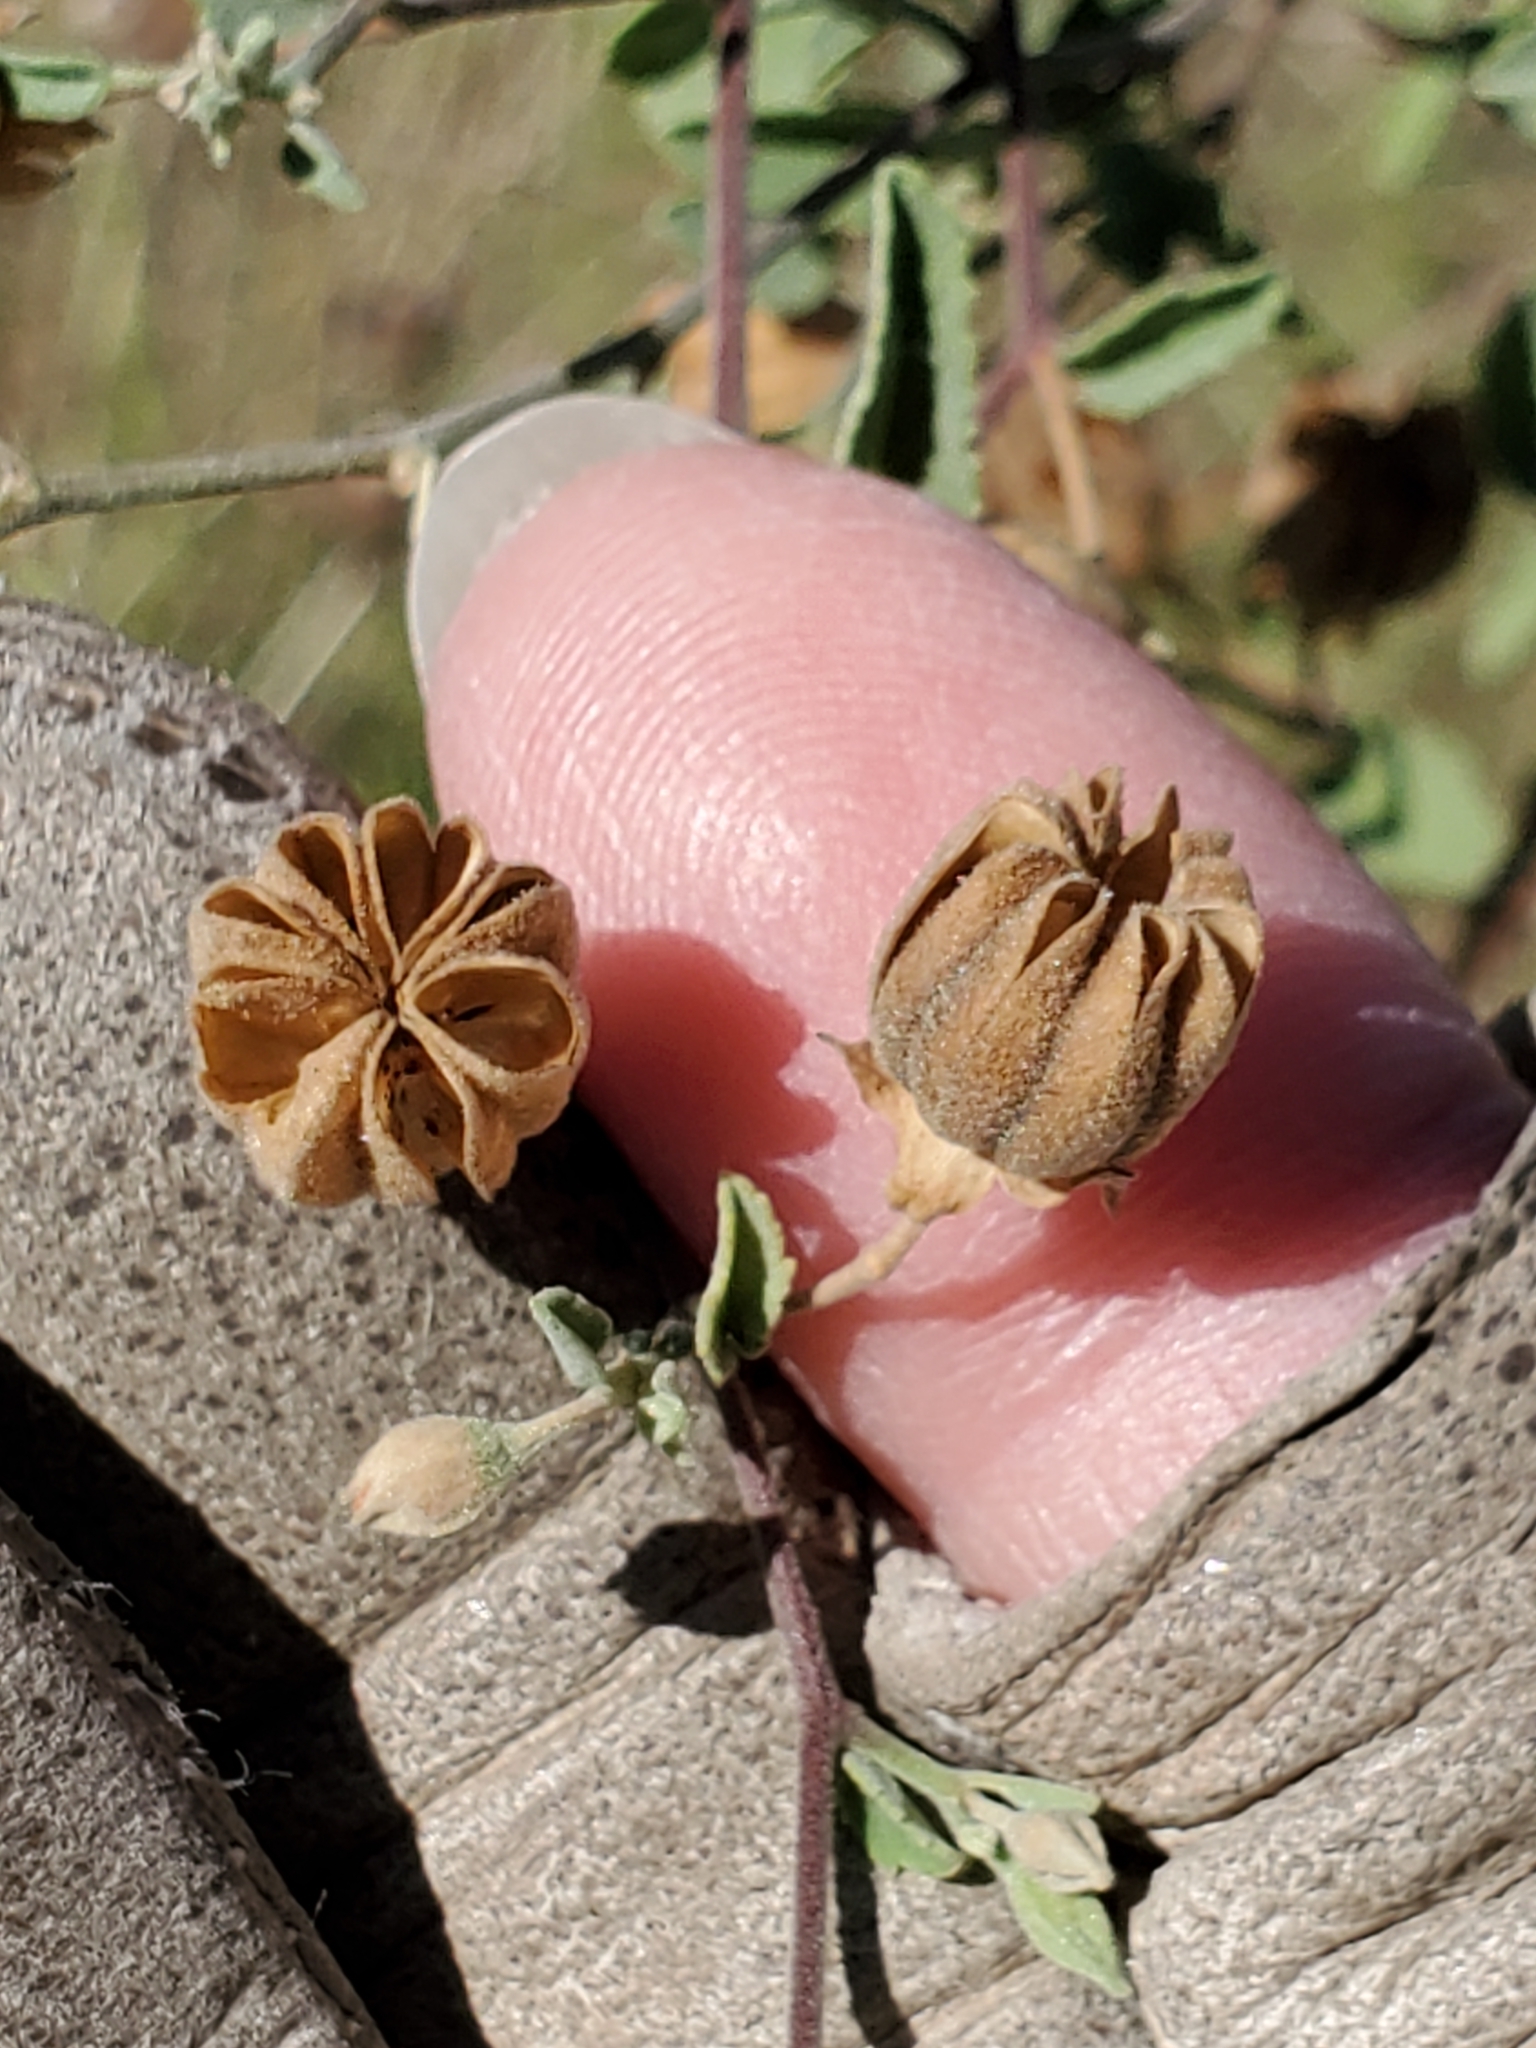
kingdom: Plantae
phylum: Tracheophyta
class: Magnoliopsida
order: Malvales
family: Malvaceae
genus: Abutilon
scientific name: Abutilon fruticosum
